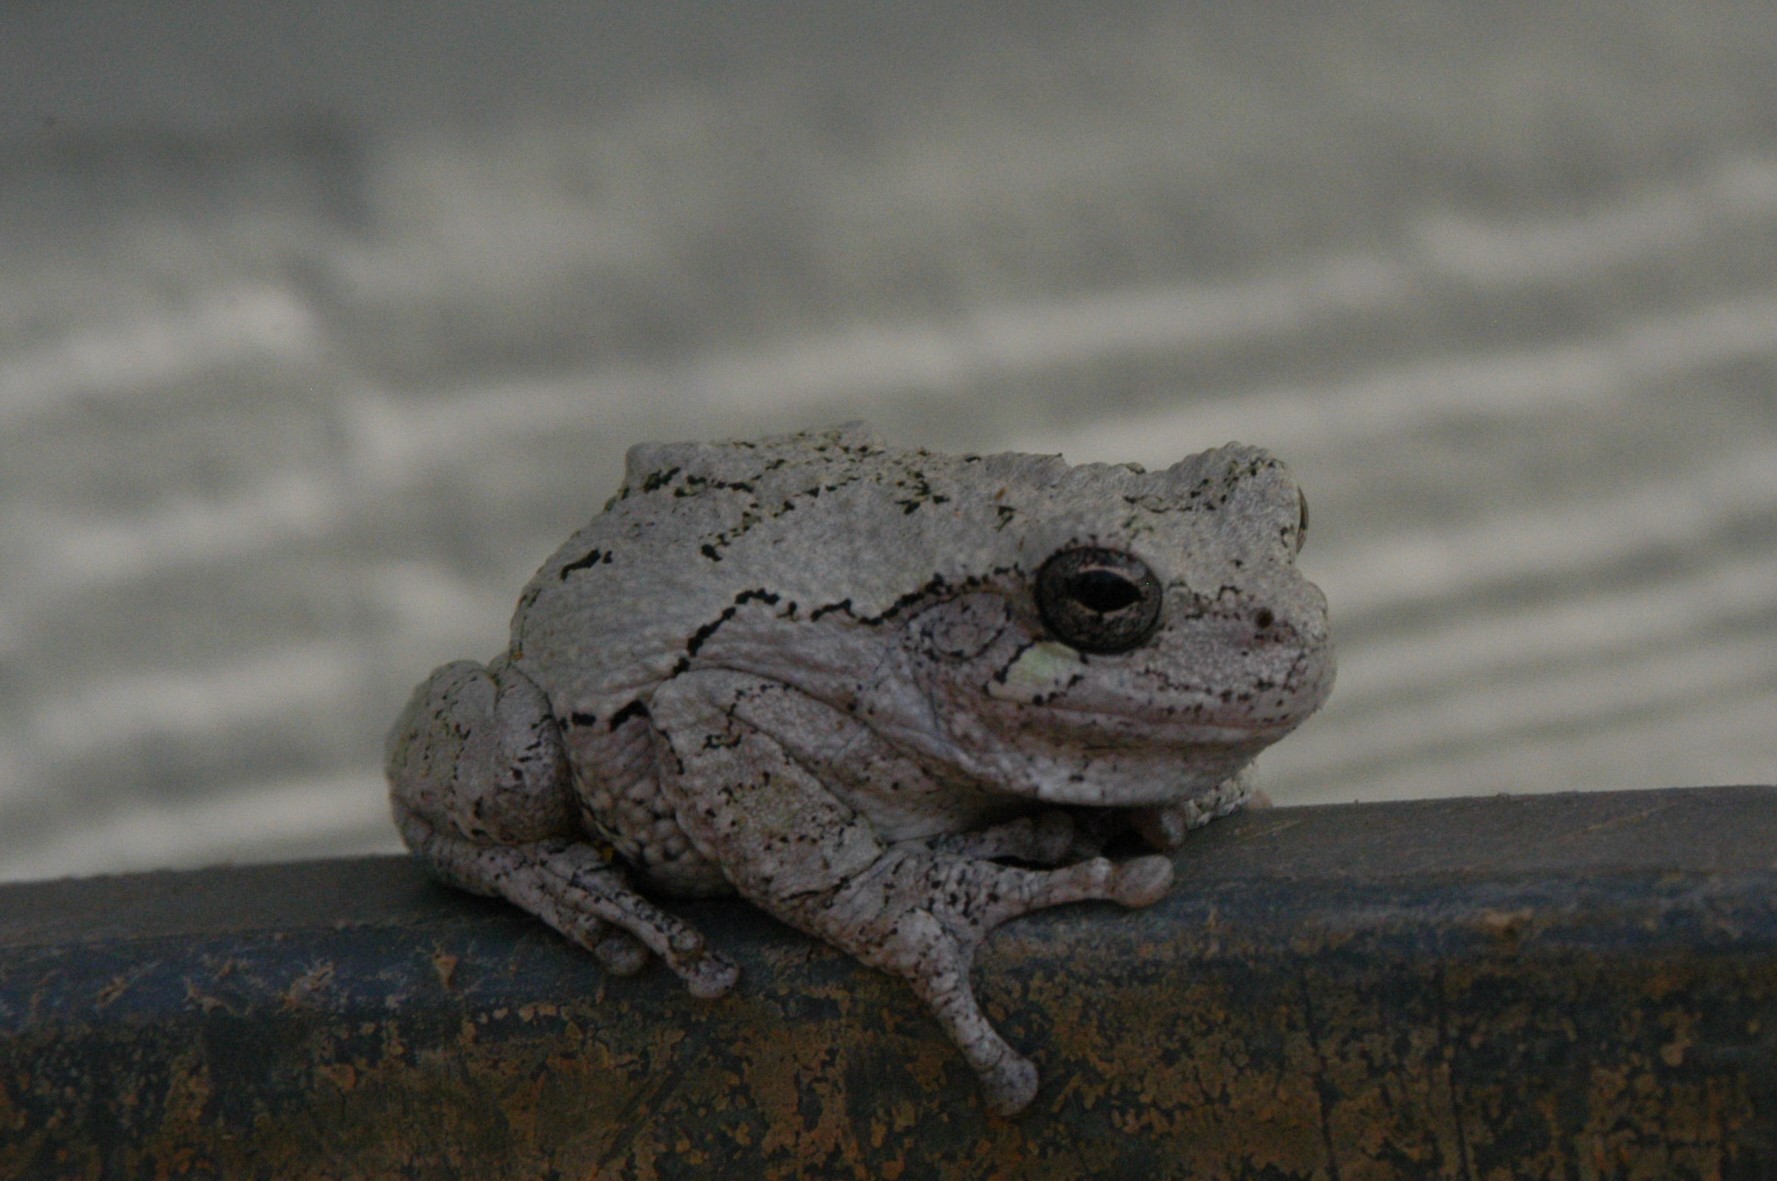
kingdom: Animalia
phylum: Chordata
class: Amphibia
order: Anura
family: Hylidae
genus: Dryophytes
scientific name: Dryophytes versicolor
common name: Gray treefrog
